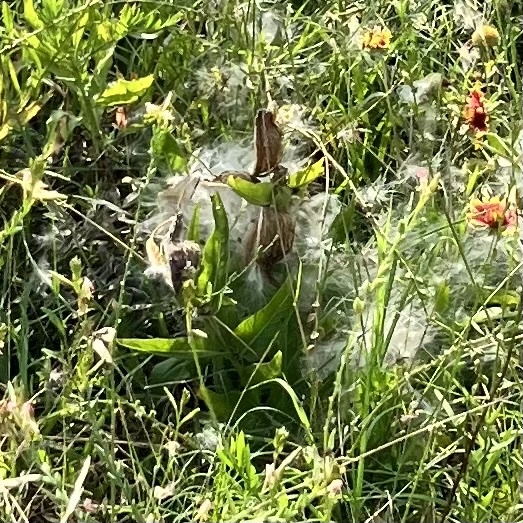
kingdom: Plantae
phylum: Tracheophyta
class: Magnoliopsida
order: Gentianales
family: Apocynaceae
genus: Asclepias
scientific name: Asclepias asperula
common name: Antelope horns
